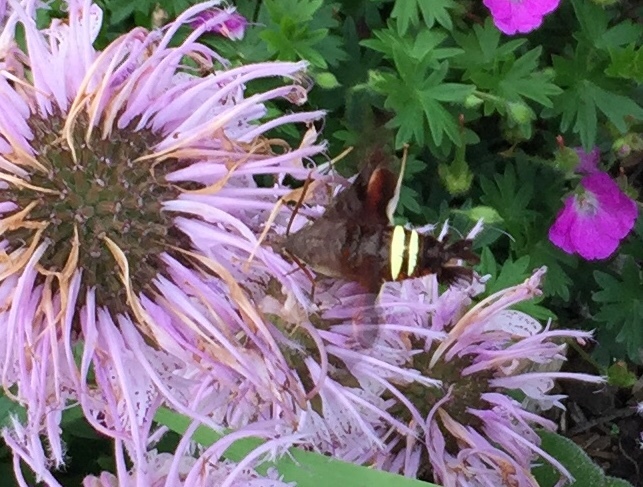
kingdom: Animalia
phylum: Arthropoda
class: Insecta
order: Lepidoptera
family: Sphingidae
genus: Amphion
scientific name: Amphion floridensis
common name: Nessus sphinx
